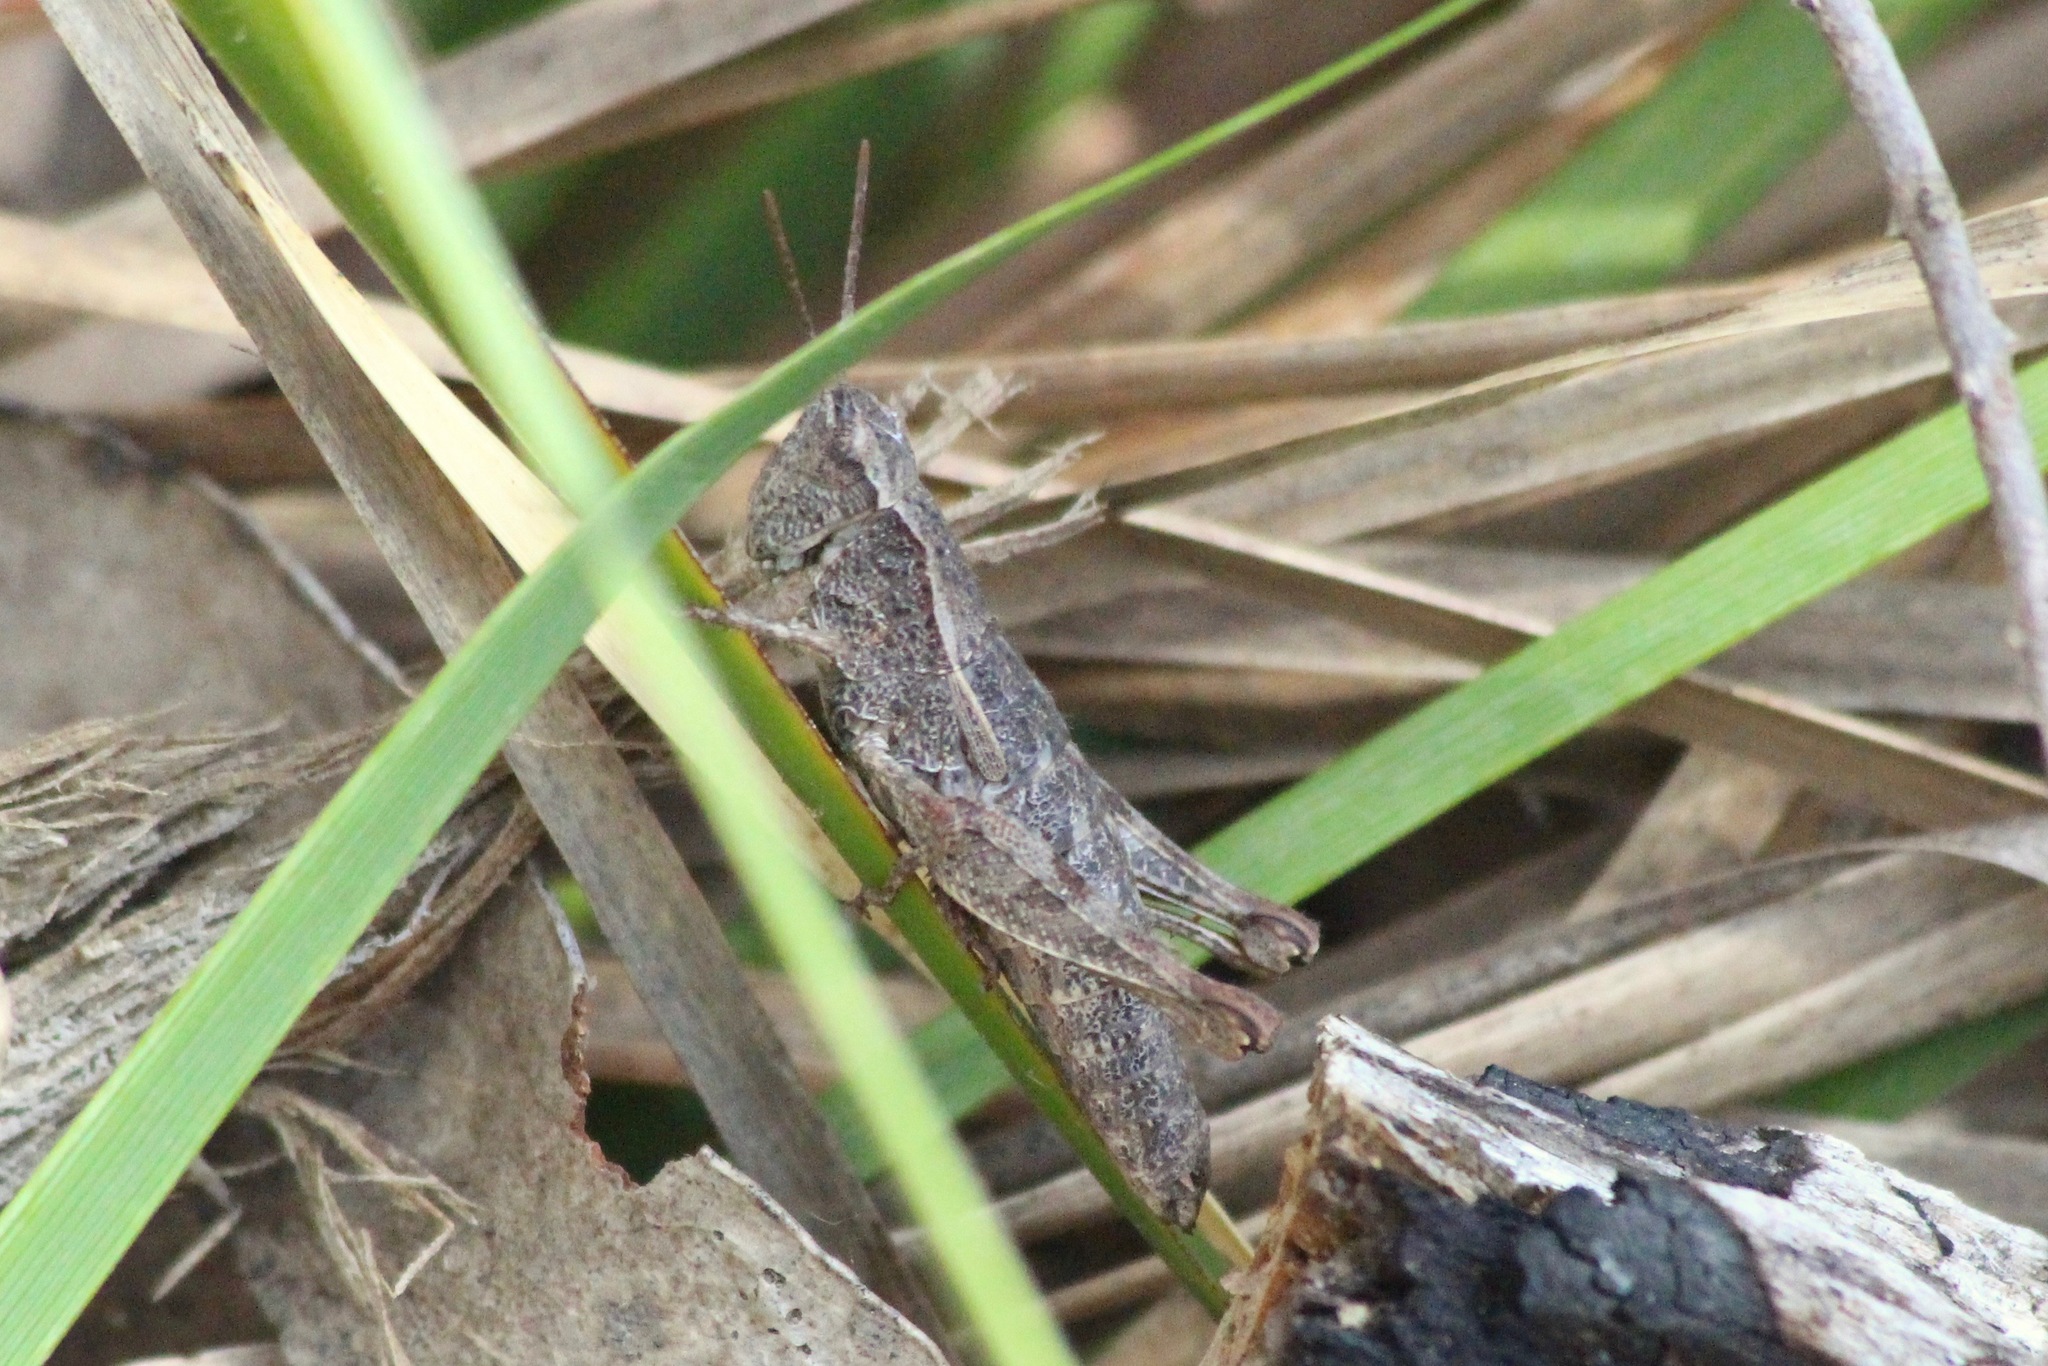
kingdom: Animalia
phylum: Arthropoda
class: Insecta
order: Orthoptera
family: Acrididae
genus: Tasmaniacris
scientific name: Tasmaniacris tasmaniensis
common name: Tasmanian grasshopper
